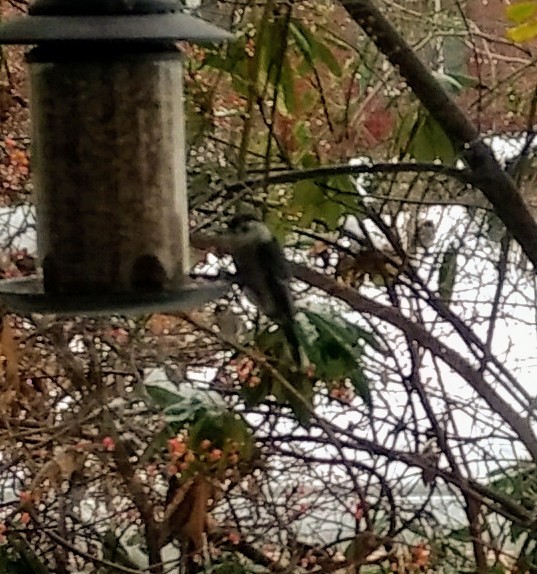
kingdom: Animalia
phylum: Chordata
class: Aves
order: Passeriformes
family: Sittidae
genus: Sitta
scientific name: Sitta carolinensis
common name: White-breasted nuthatch
